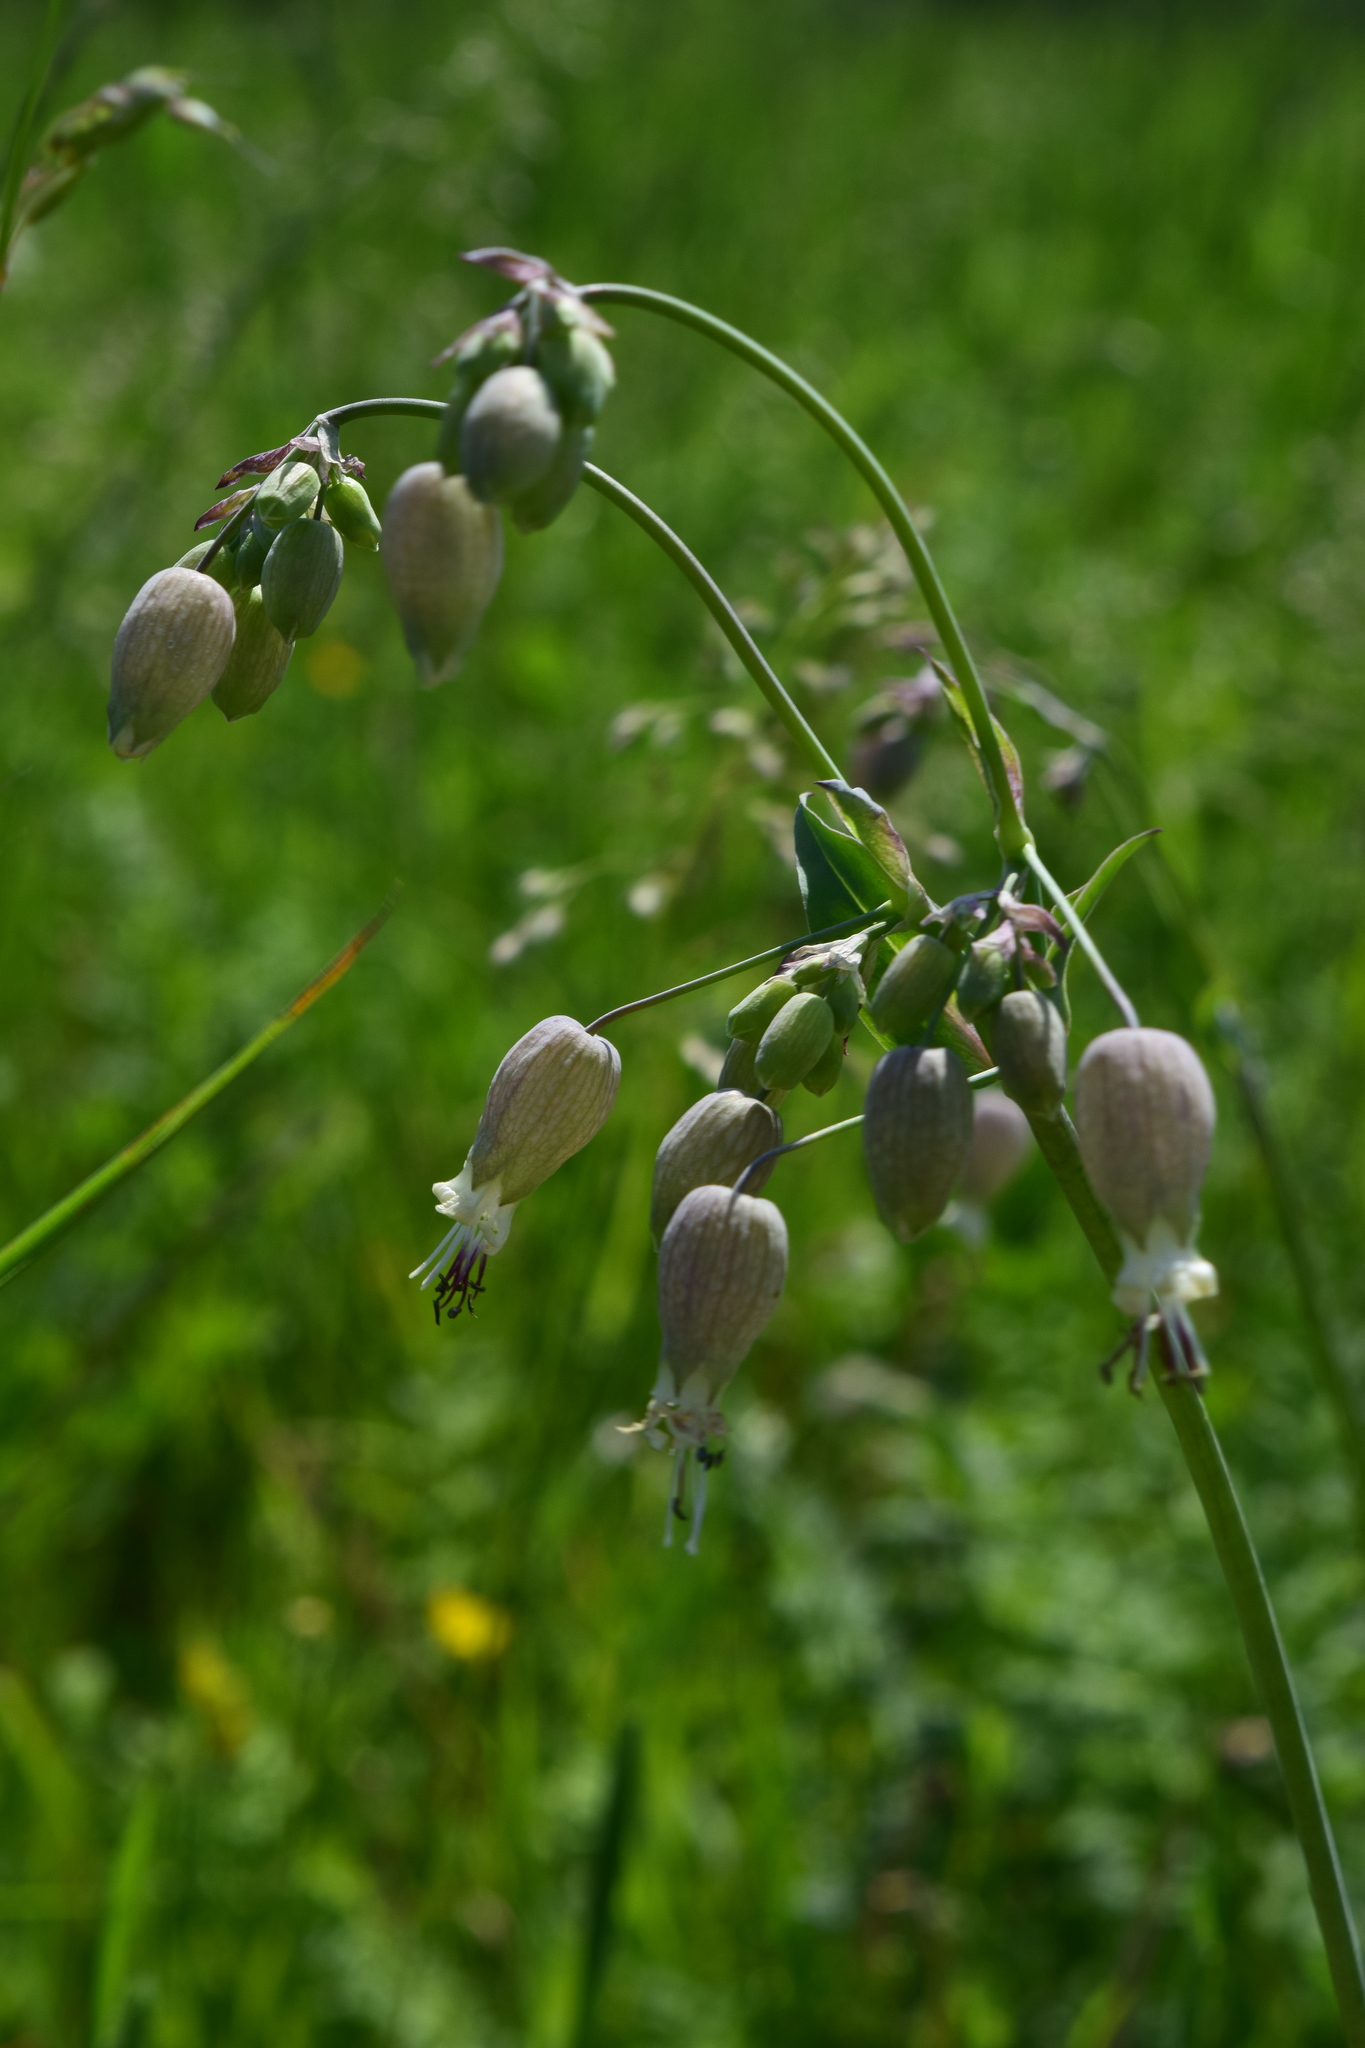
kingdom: Plantae
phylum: Tracheophyta
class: Magnoliopsida
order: Caryophyllales
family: Caryophyllaceae
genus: Silene
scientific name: Silene vulgaris
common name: Bladder campion
